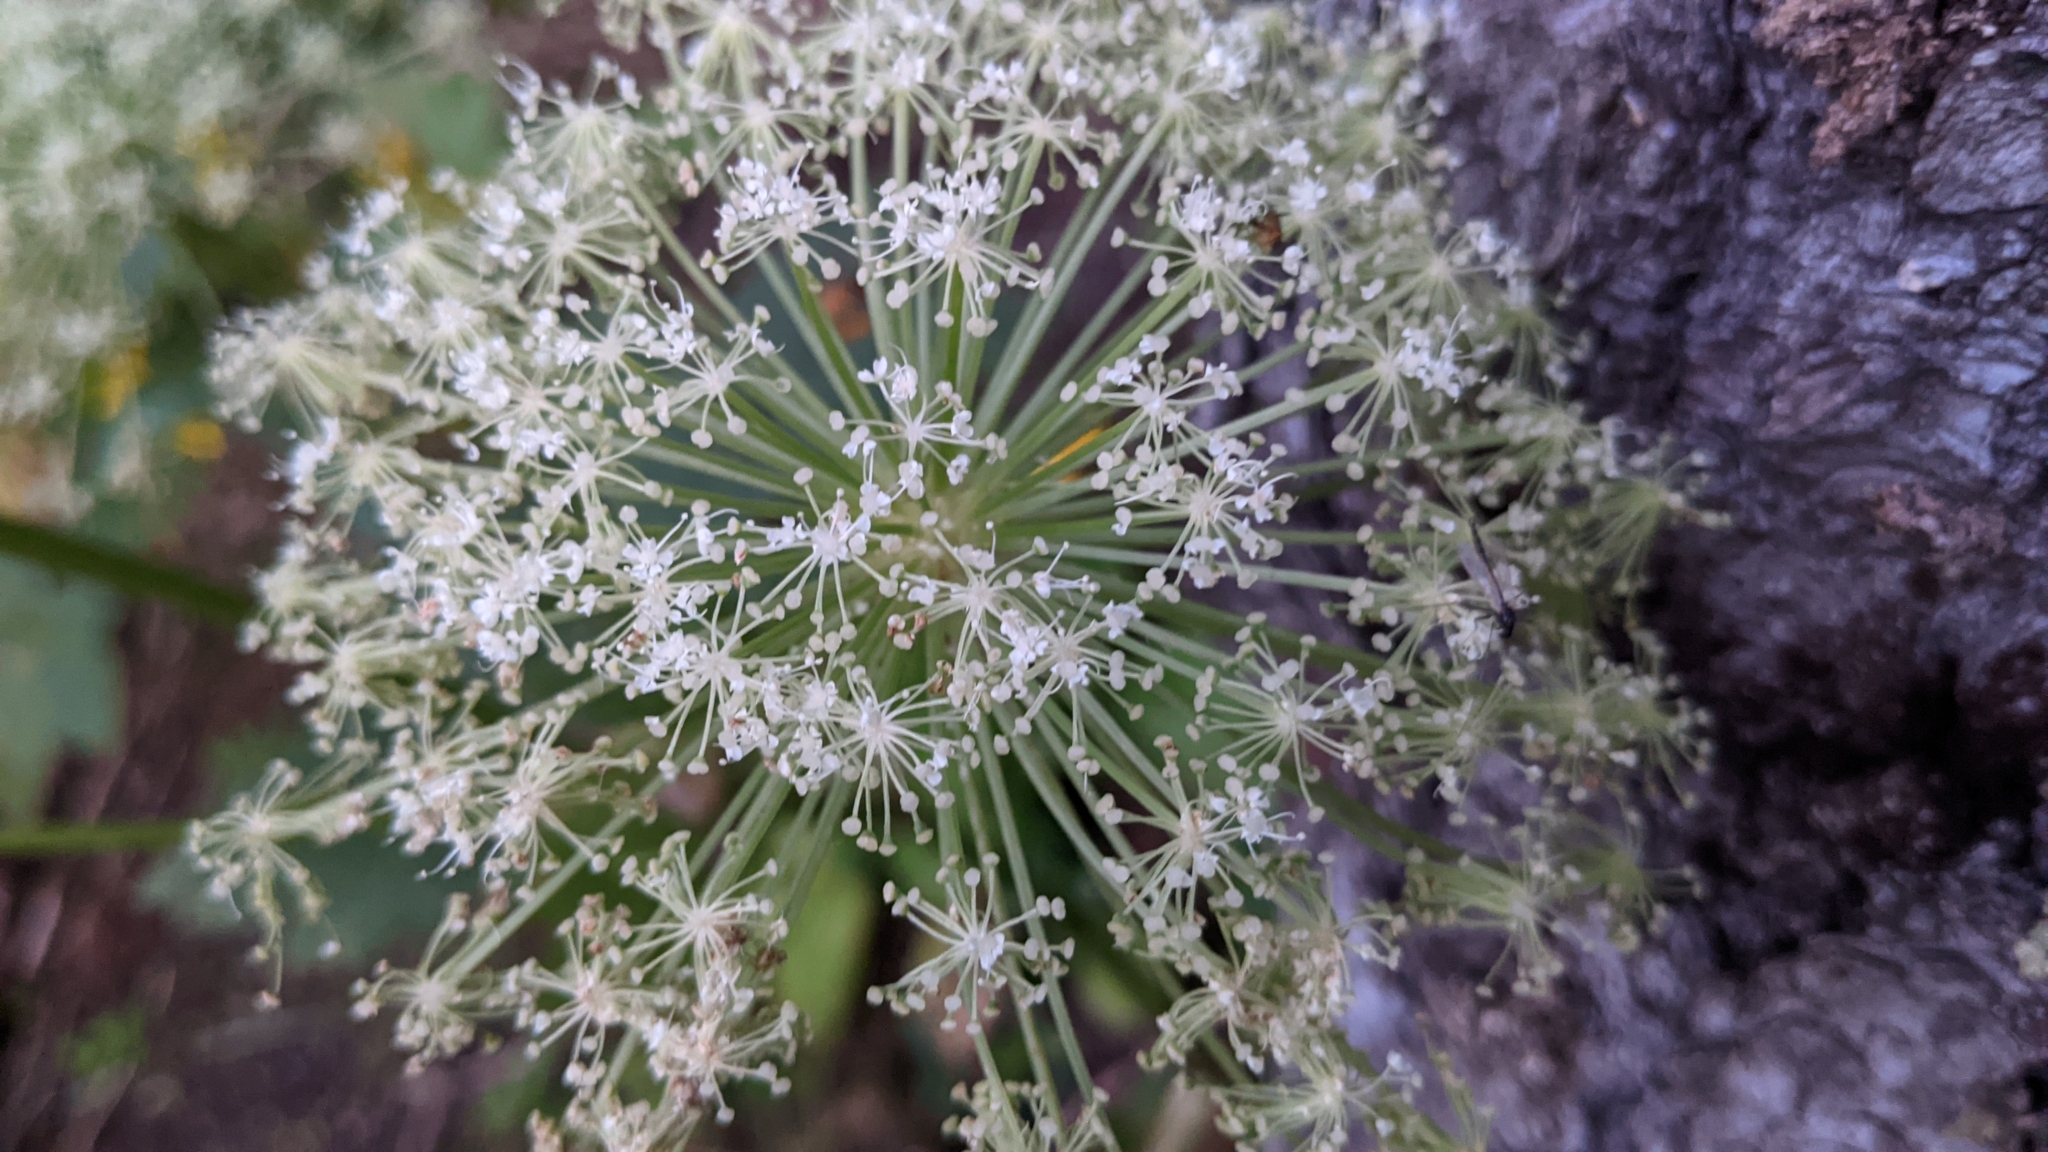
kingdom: Plantae
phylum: Tracheophyta
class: Magnoliopsida
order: Apiales
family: Apiaceae
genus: Imperatoria
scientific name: Imperatoria ostruthium
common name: Masterwort
